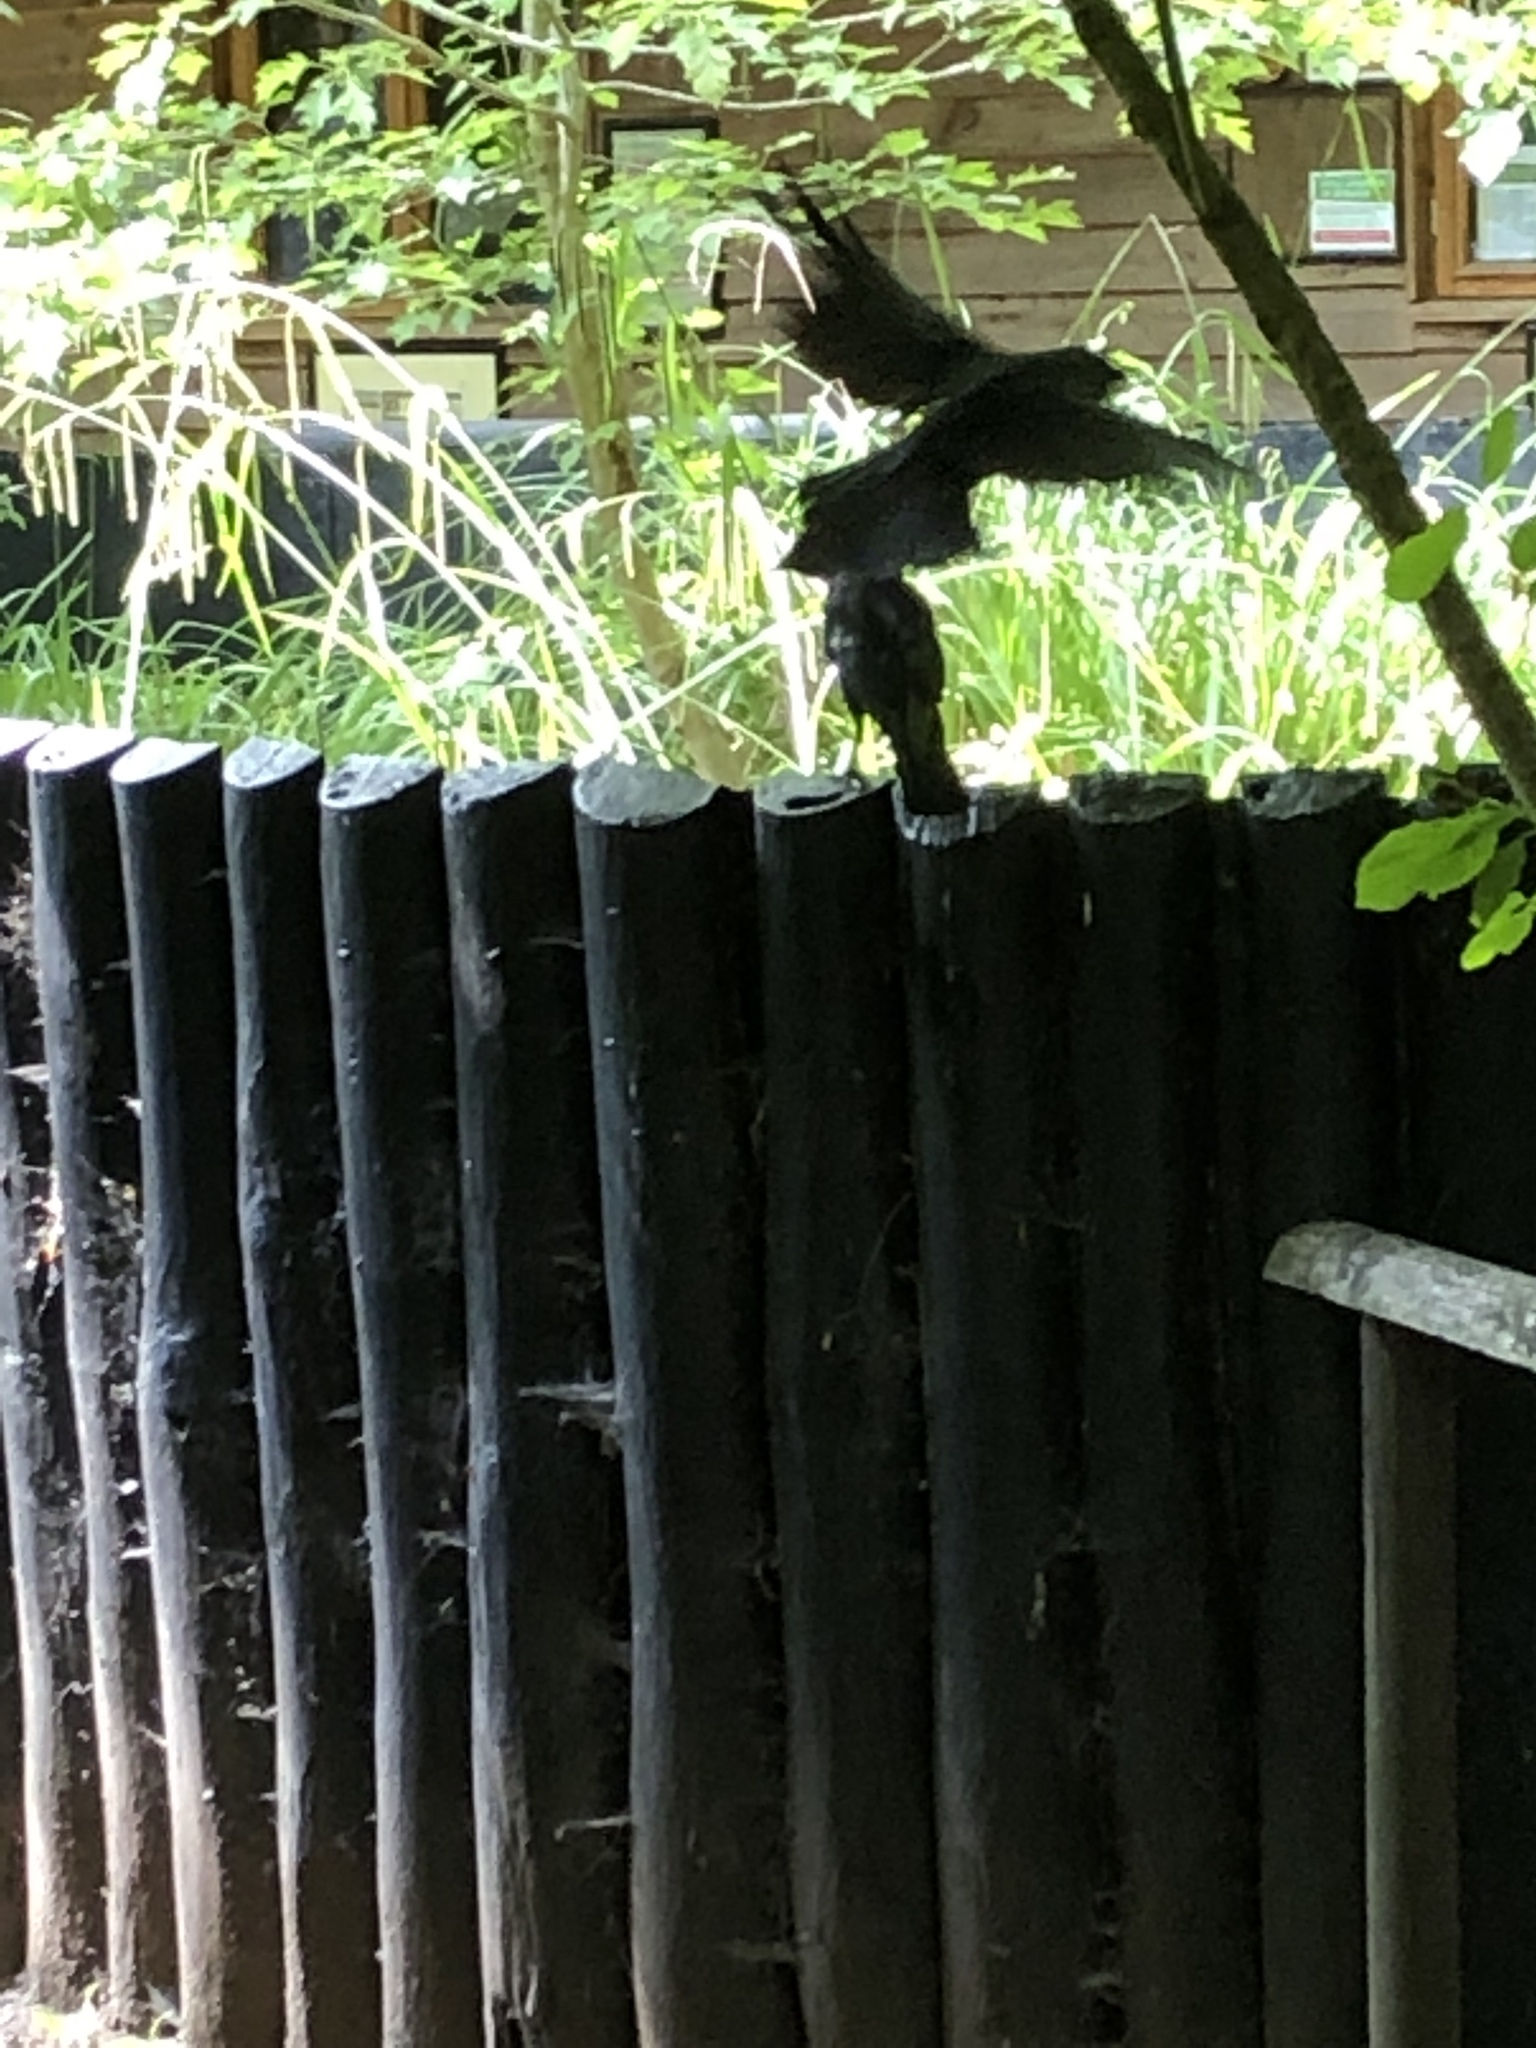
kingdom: Animalia
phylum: Chordata
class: Aves
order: Passeriformes
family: Corvidae
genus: Coloeus
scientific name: Coloeus monedula
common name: Western jackdaw
